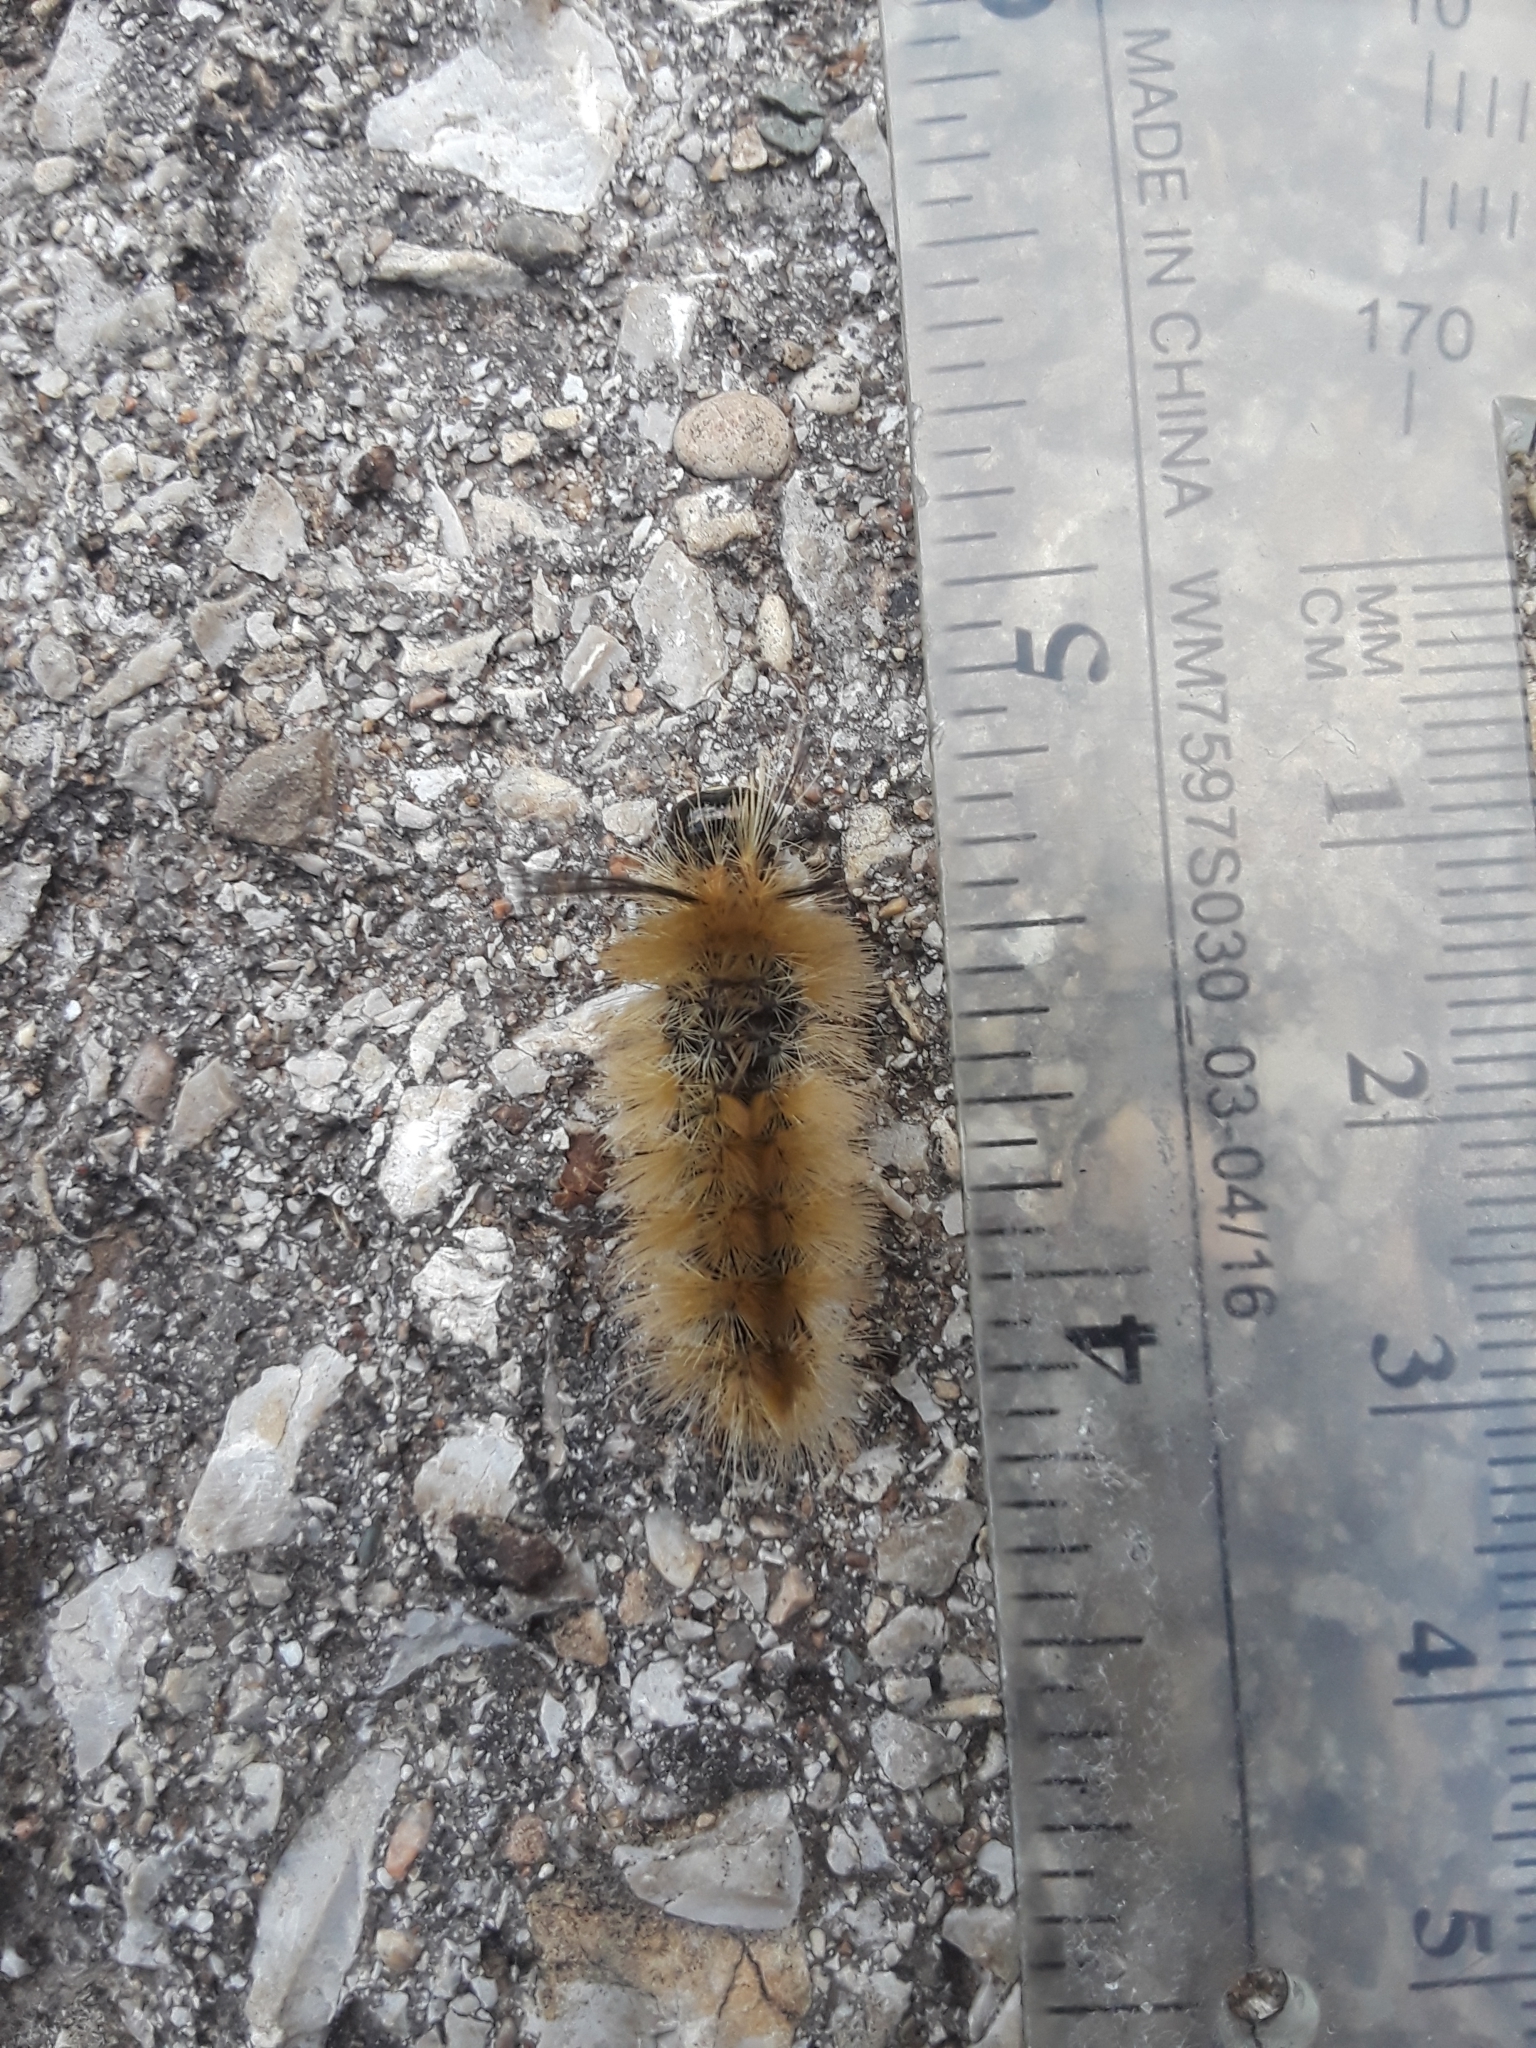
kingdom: Animalia
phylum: Arthropoda
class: Insecta
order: Lepidoptera
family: Erebidae
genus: Halysidota
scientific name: Halysidota tessellaris
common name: Banded tussock moth
